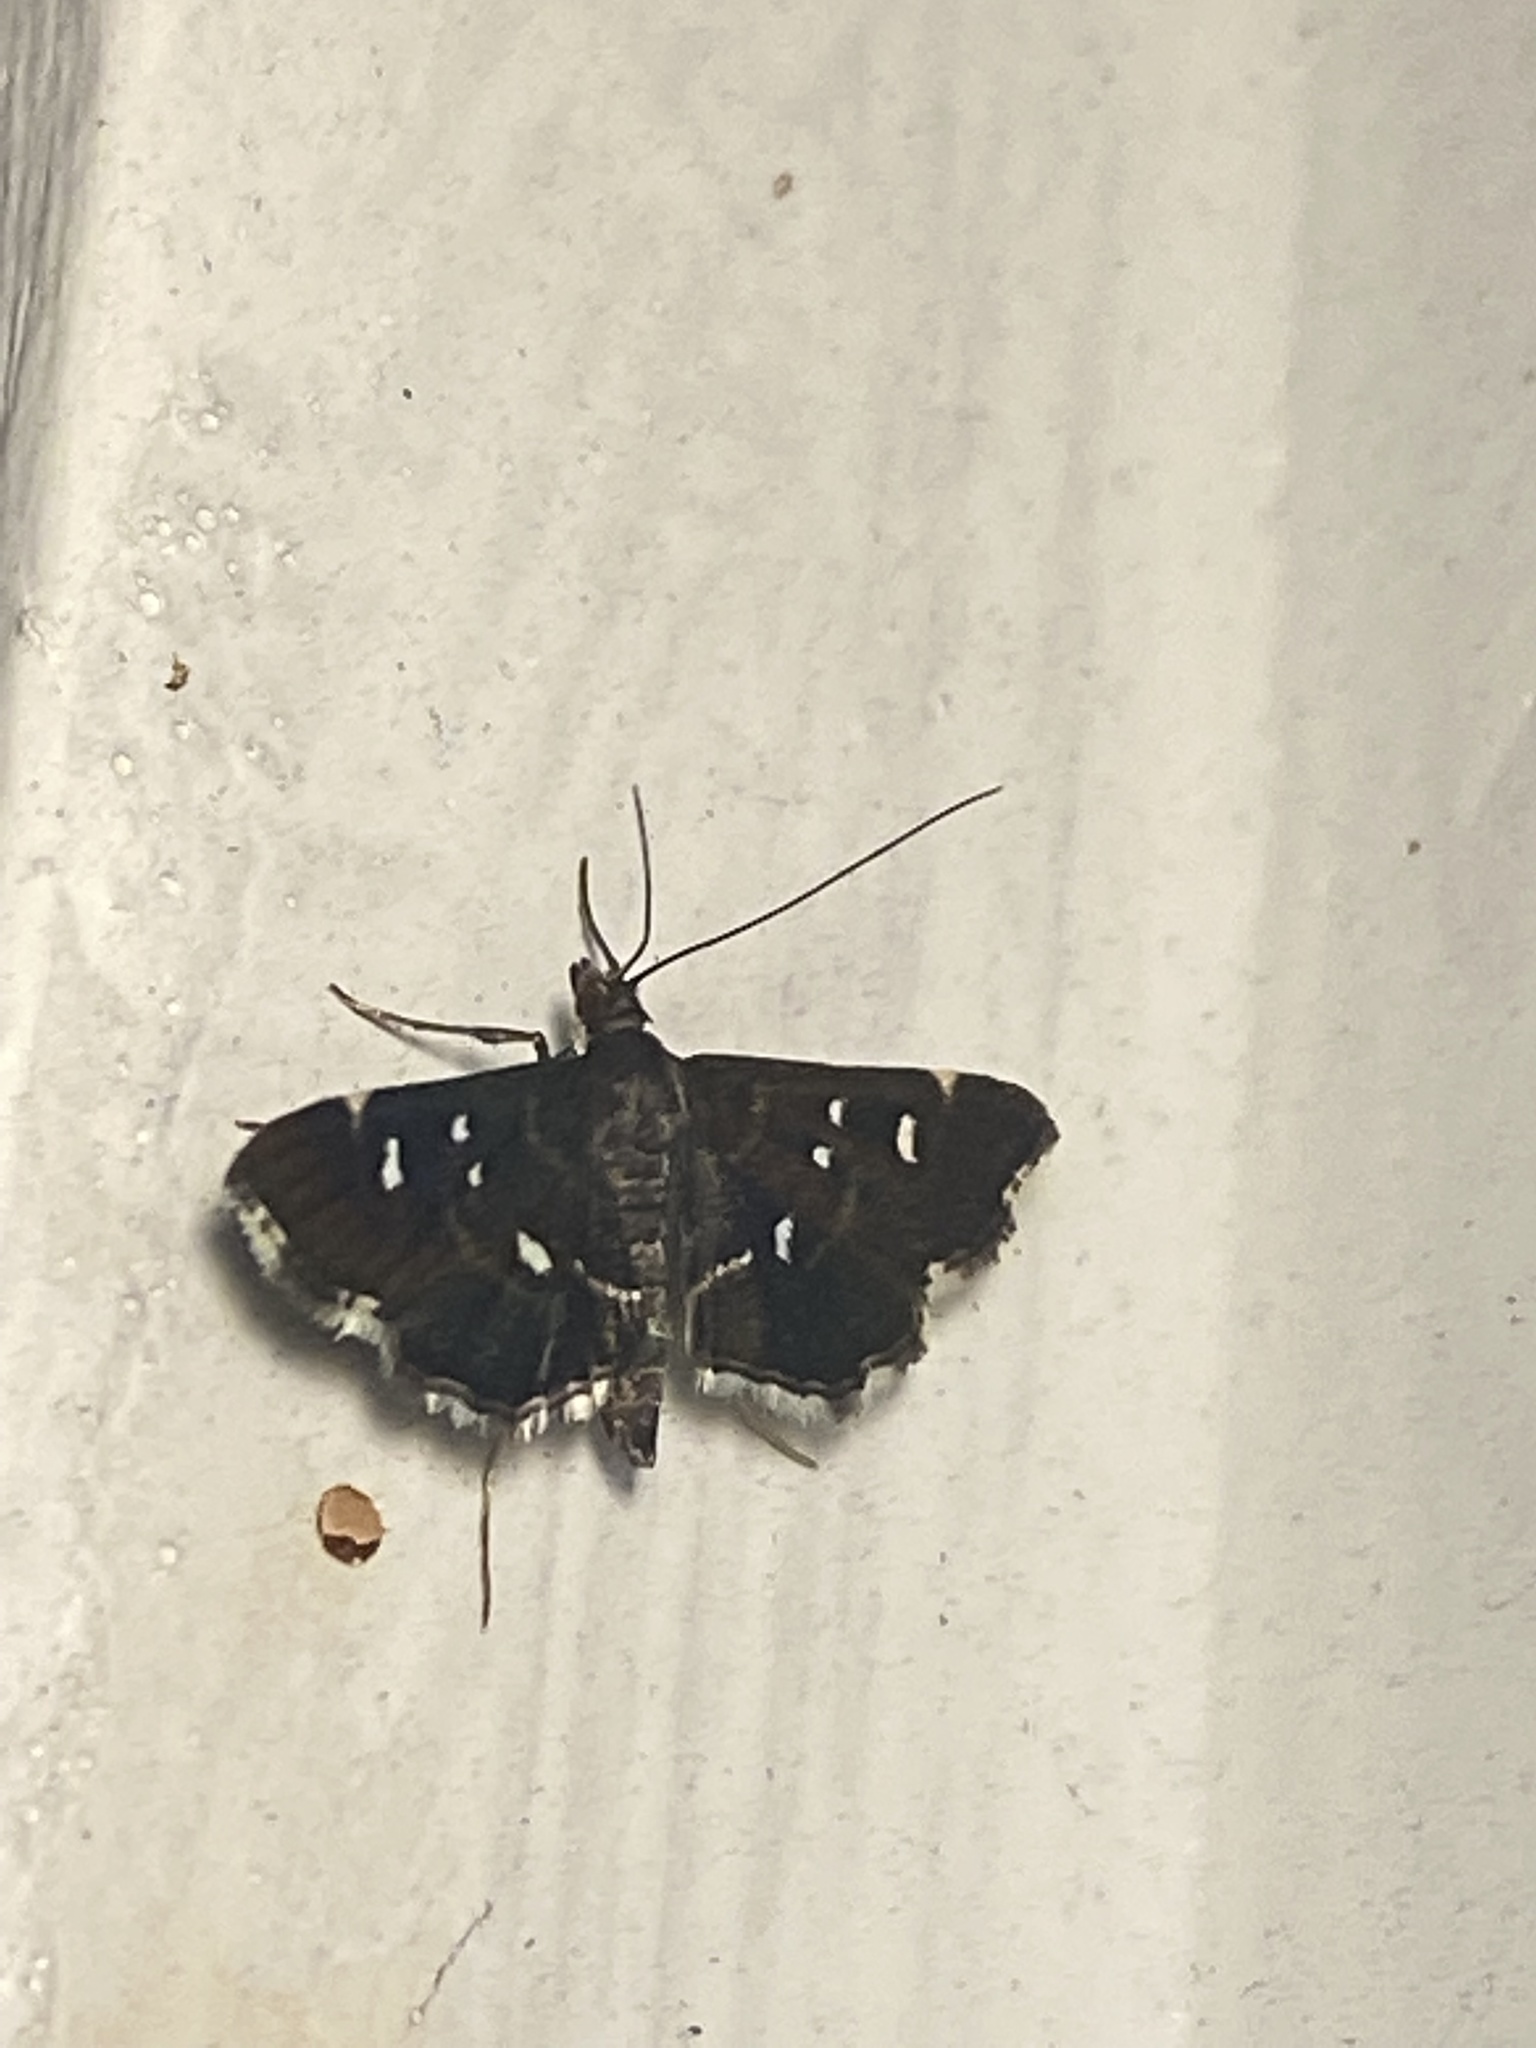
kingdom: Animalia
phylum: Arthropoda
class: Insecta
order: Lepidoptera
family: Crambidae
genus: Diathrausta
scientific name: Diathrausta reconditalis
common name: Recondite webworm moth
